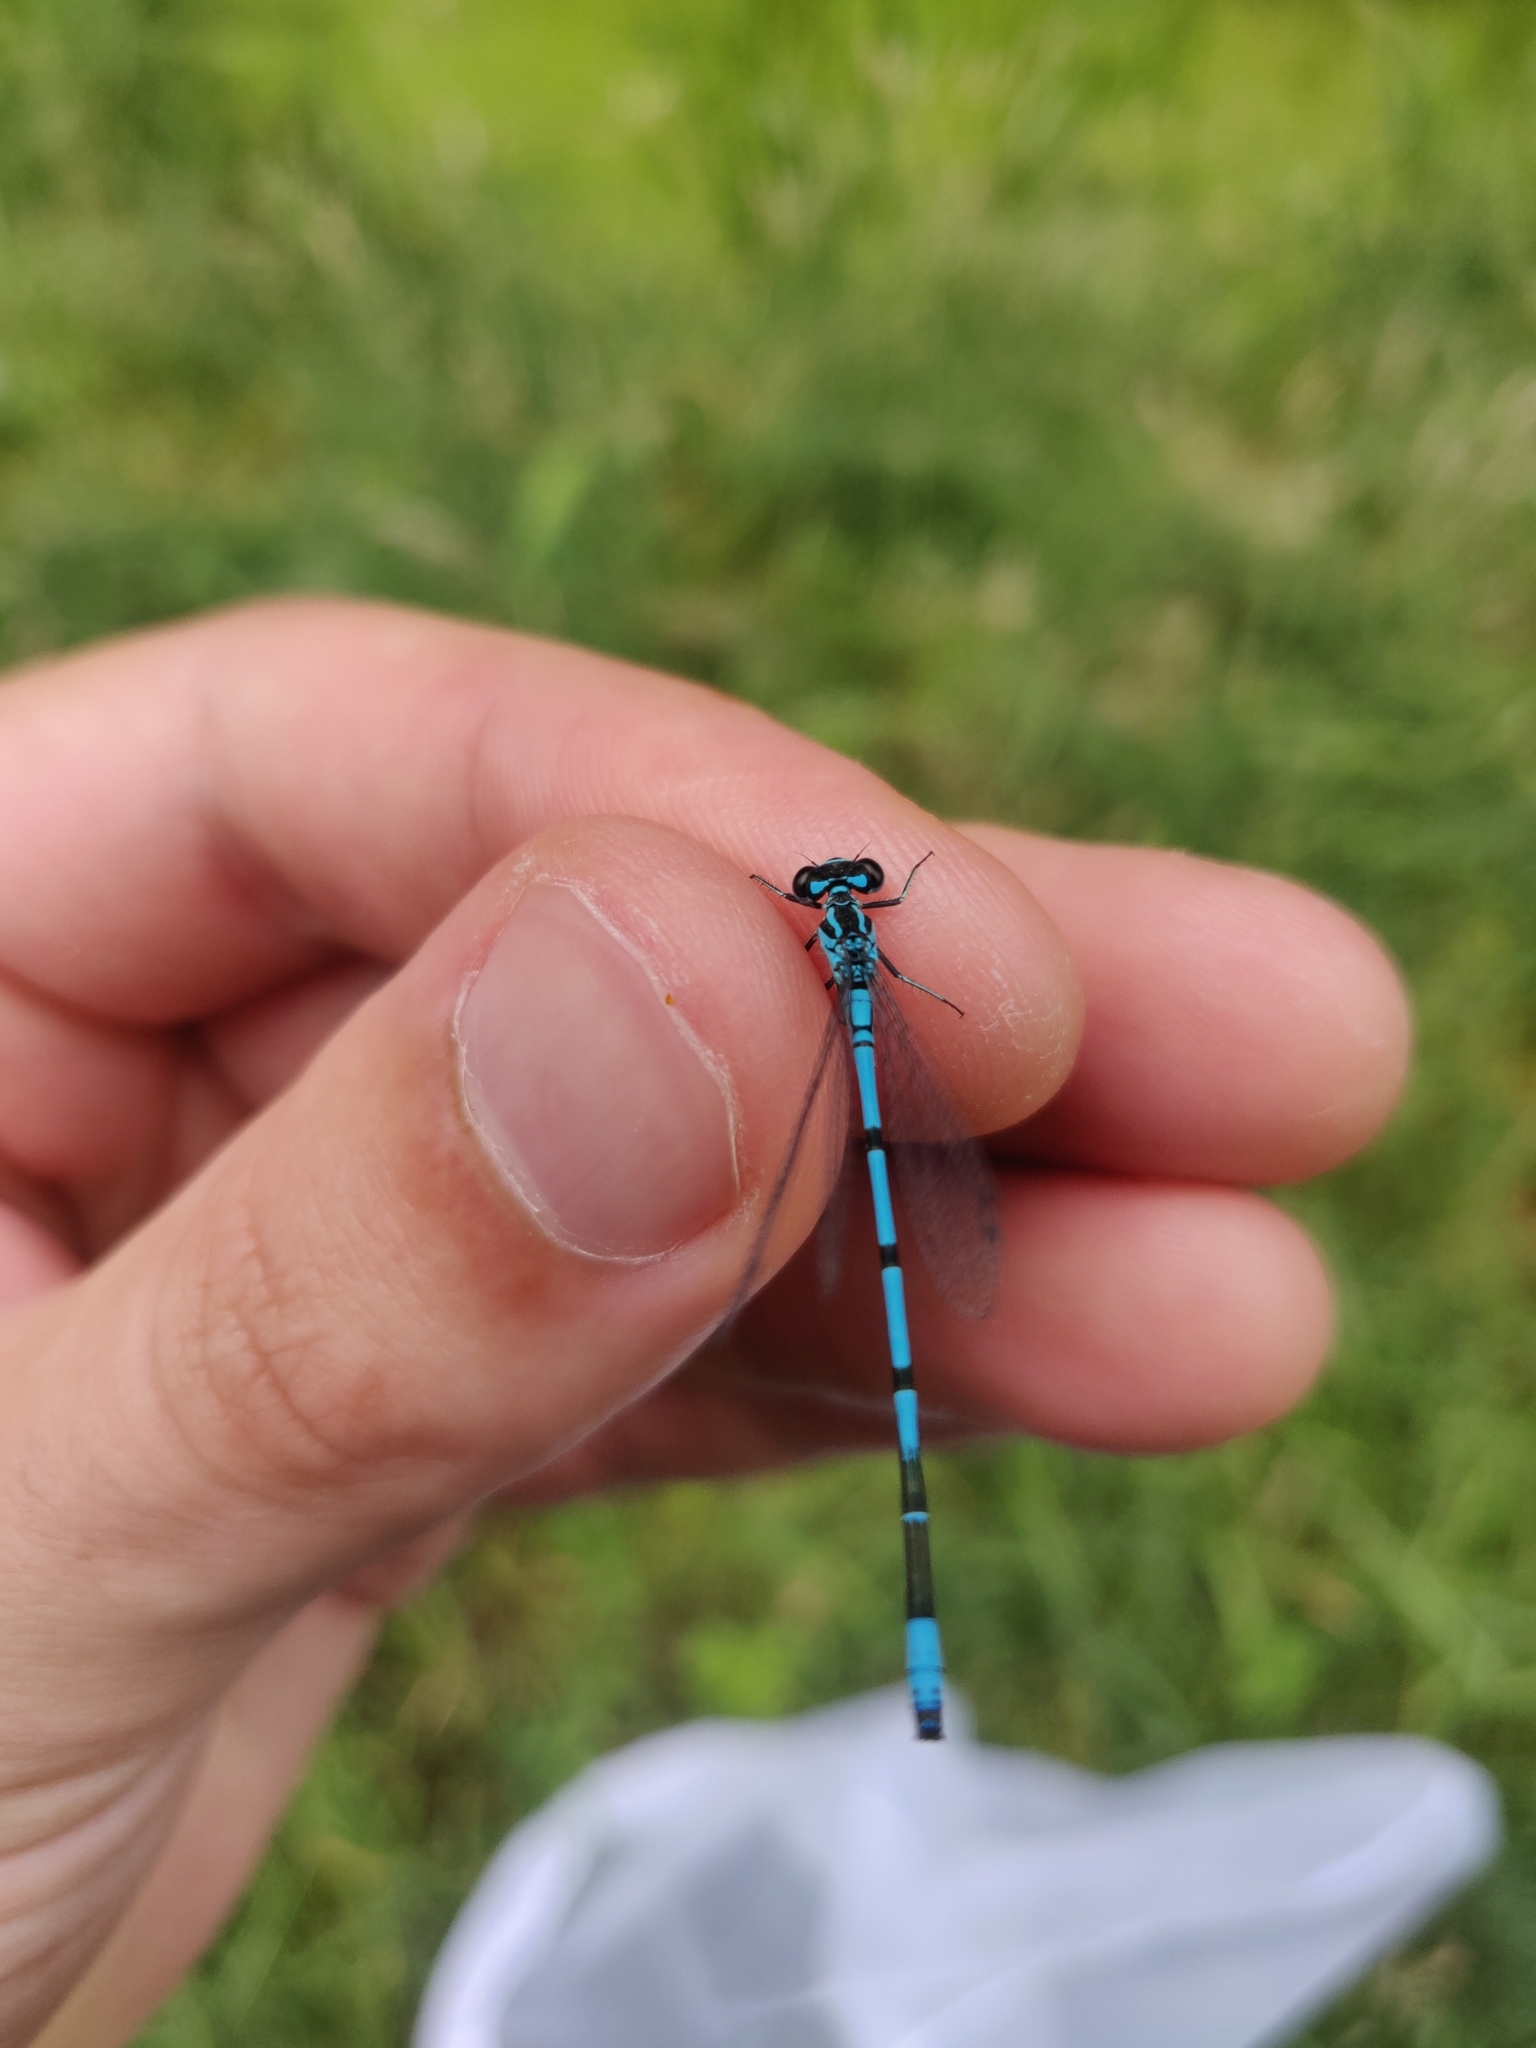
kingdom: Animalia
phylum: Arthropoda
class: Insecta
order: Odonata
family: Coenagrionidae
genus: Coenagrion
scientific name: Coenagrion puella
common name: Azure damselfly
